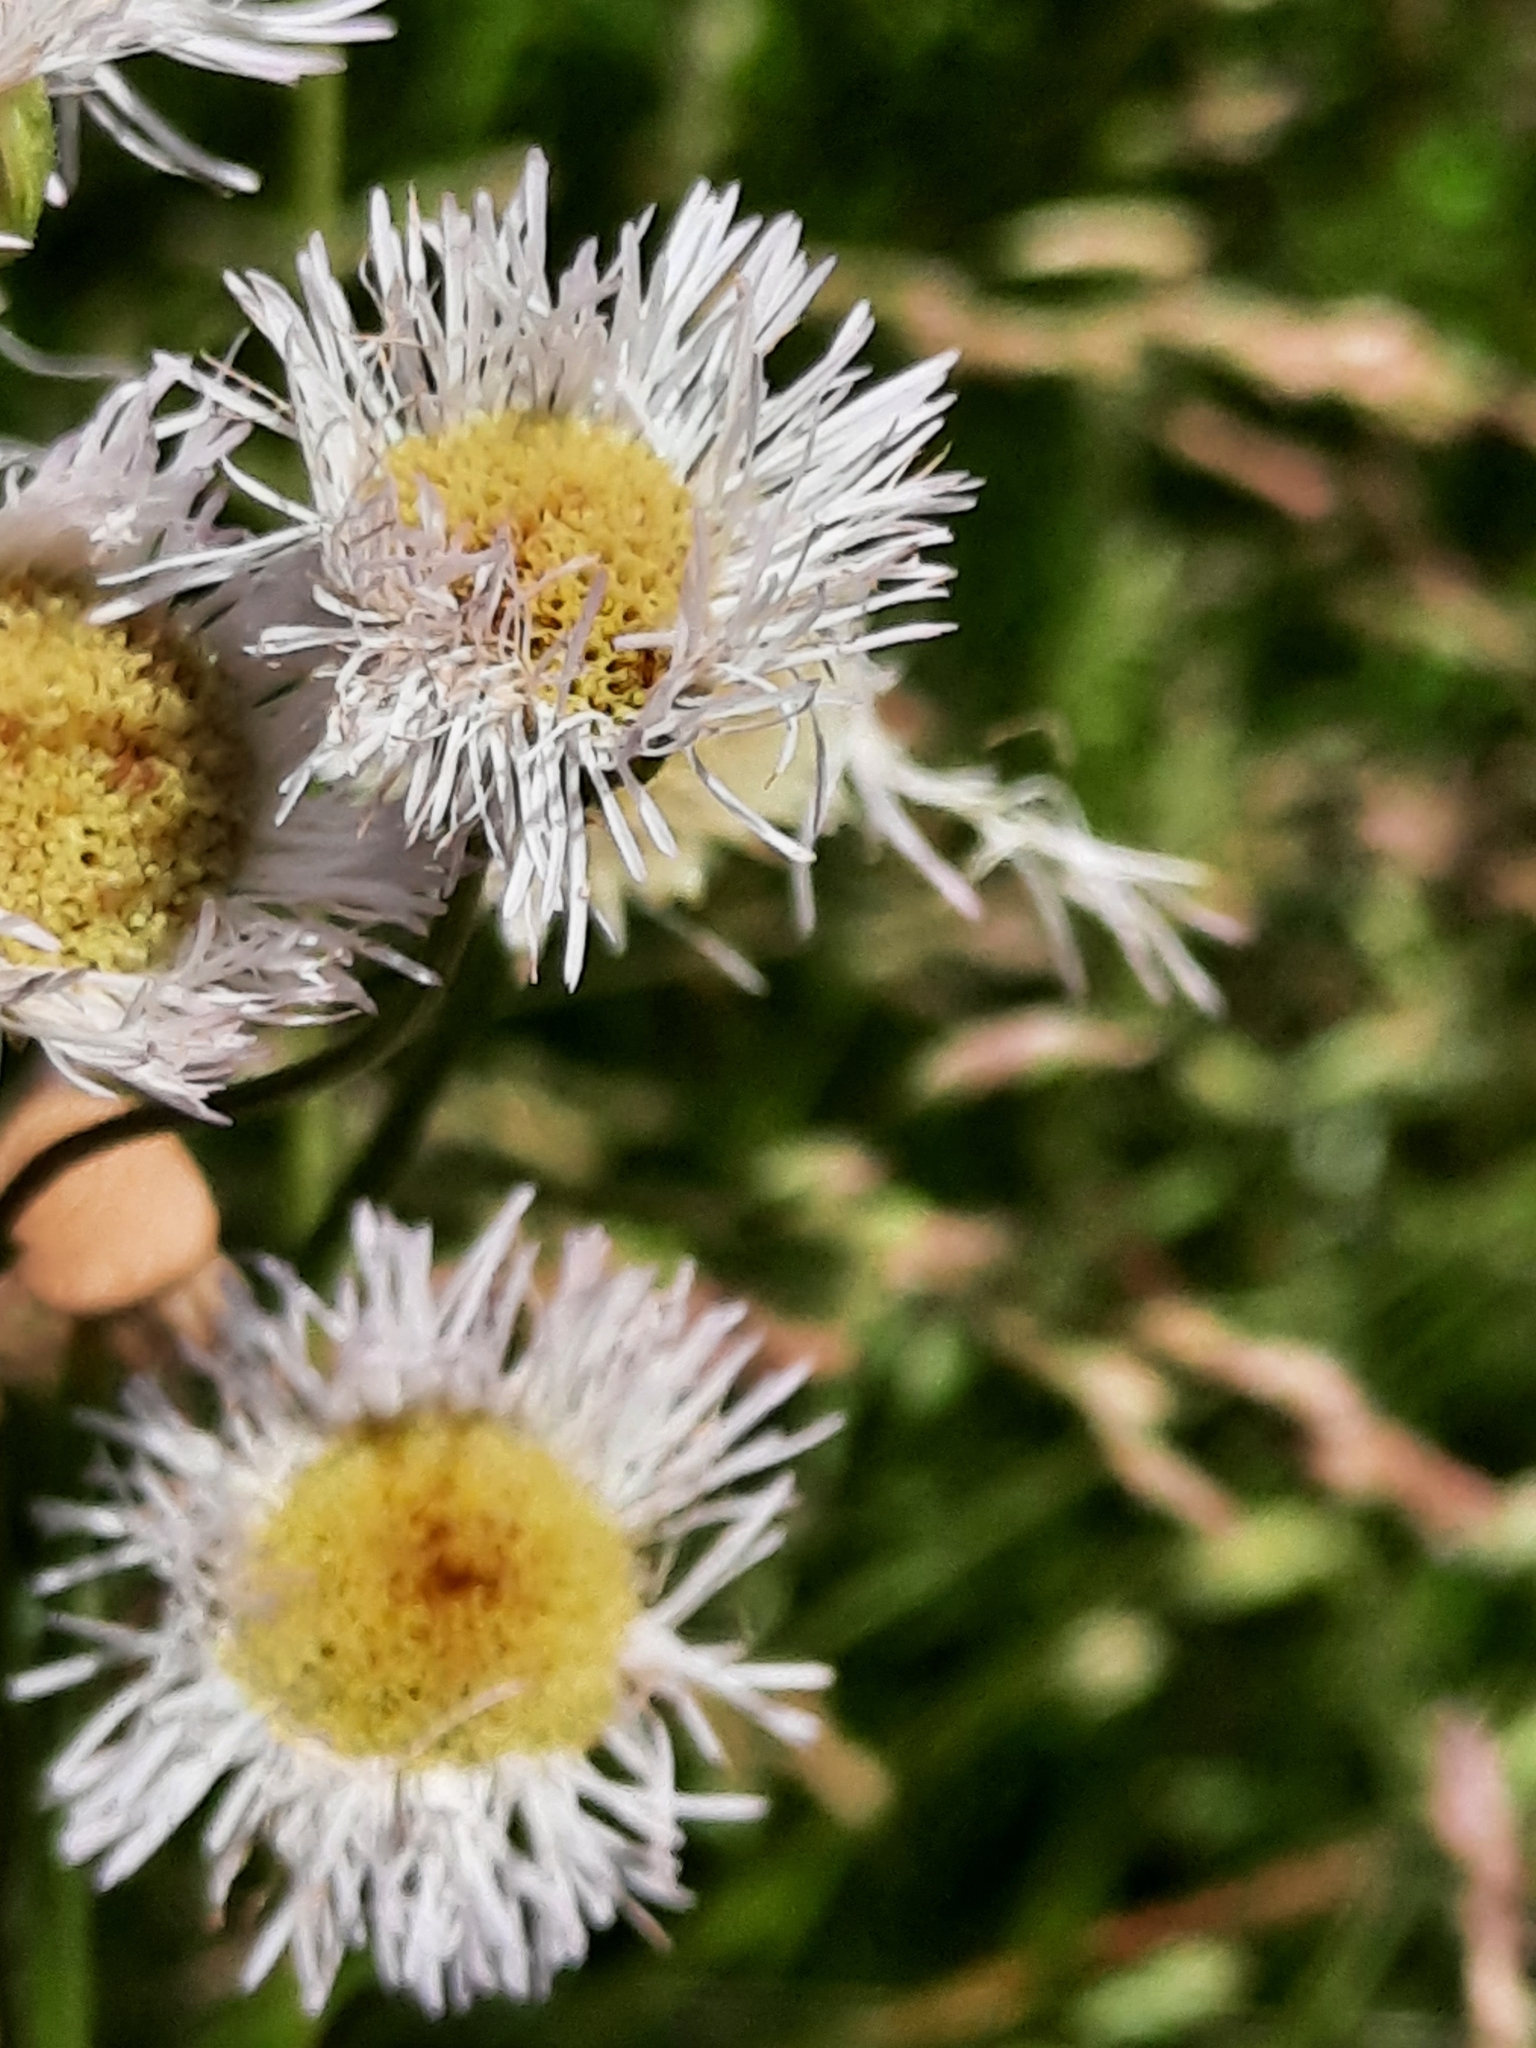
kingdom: Plantae
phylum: Tracheophyta
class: Magnoliopsida
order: Asterales
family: Asteraceae
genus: Erigeron
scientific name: Erigeron philadelphicus
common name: Robin's-plantain
